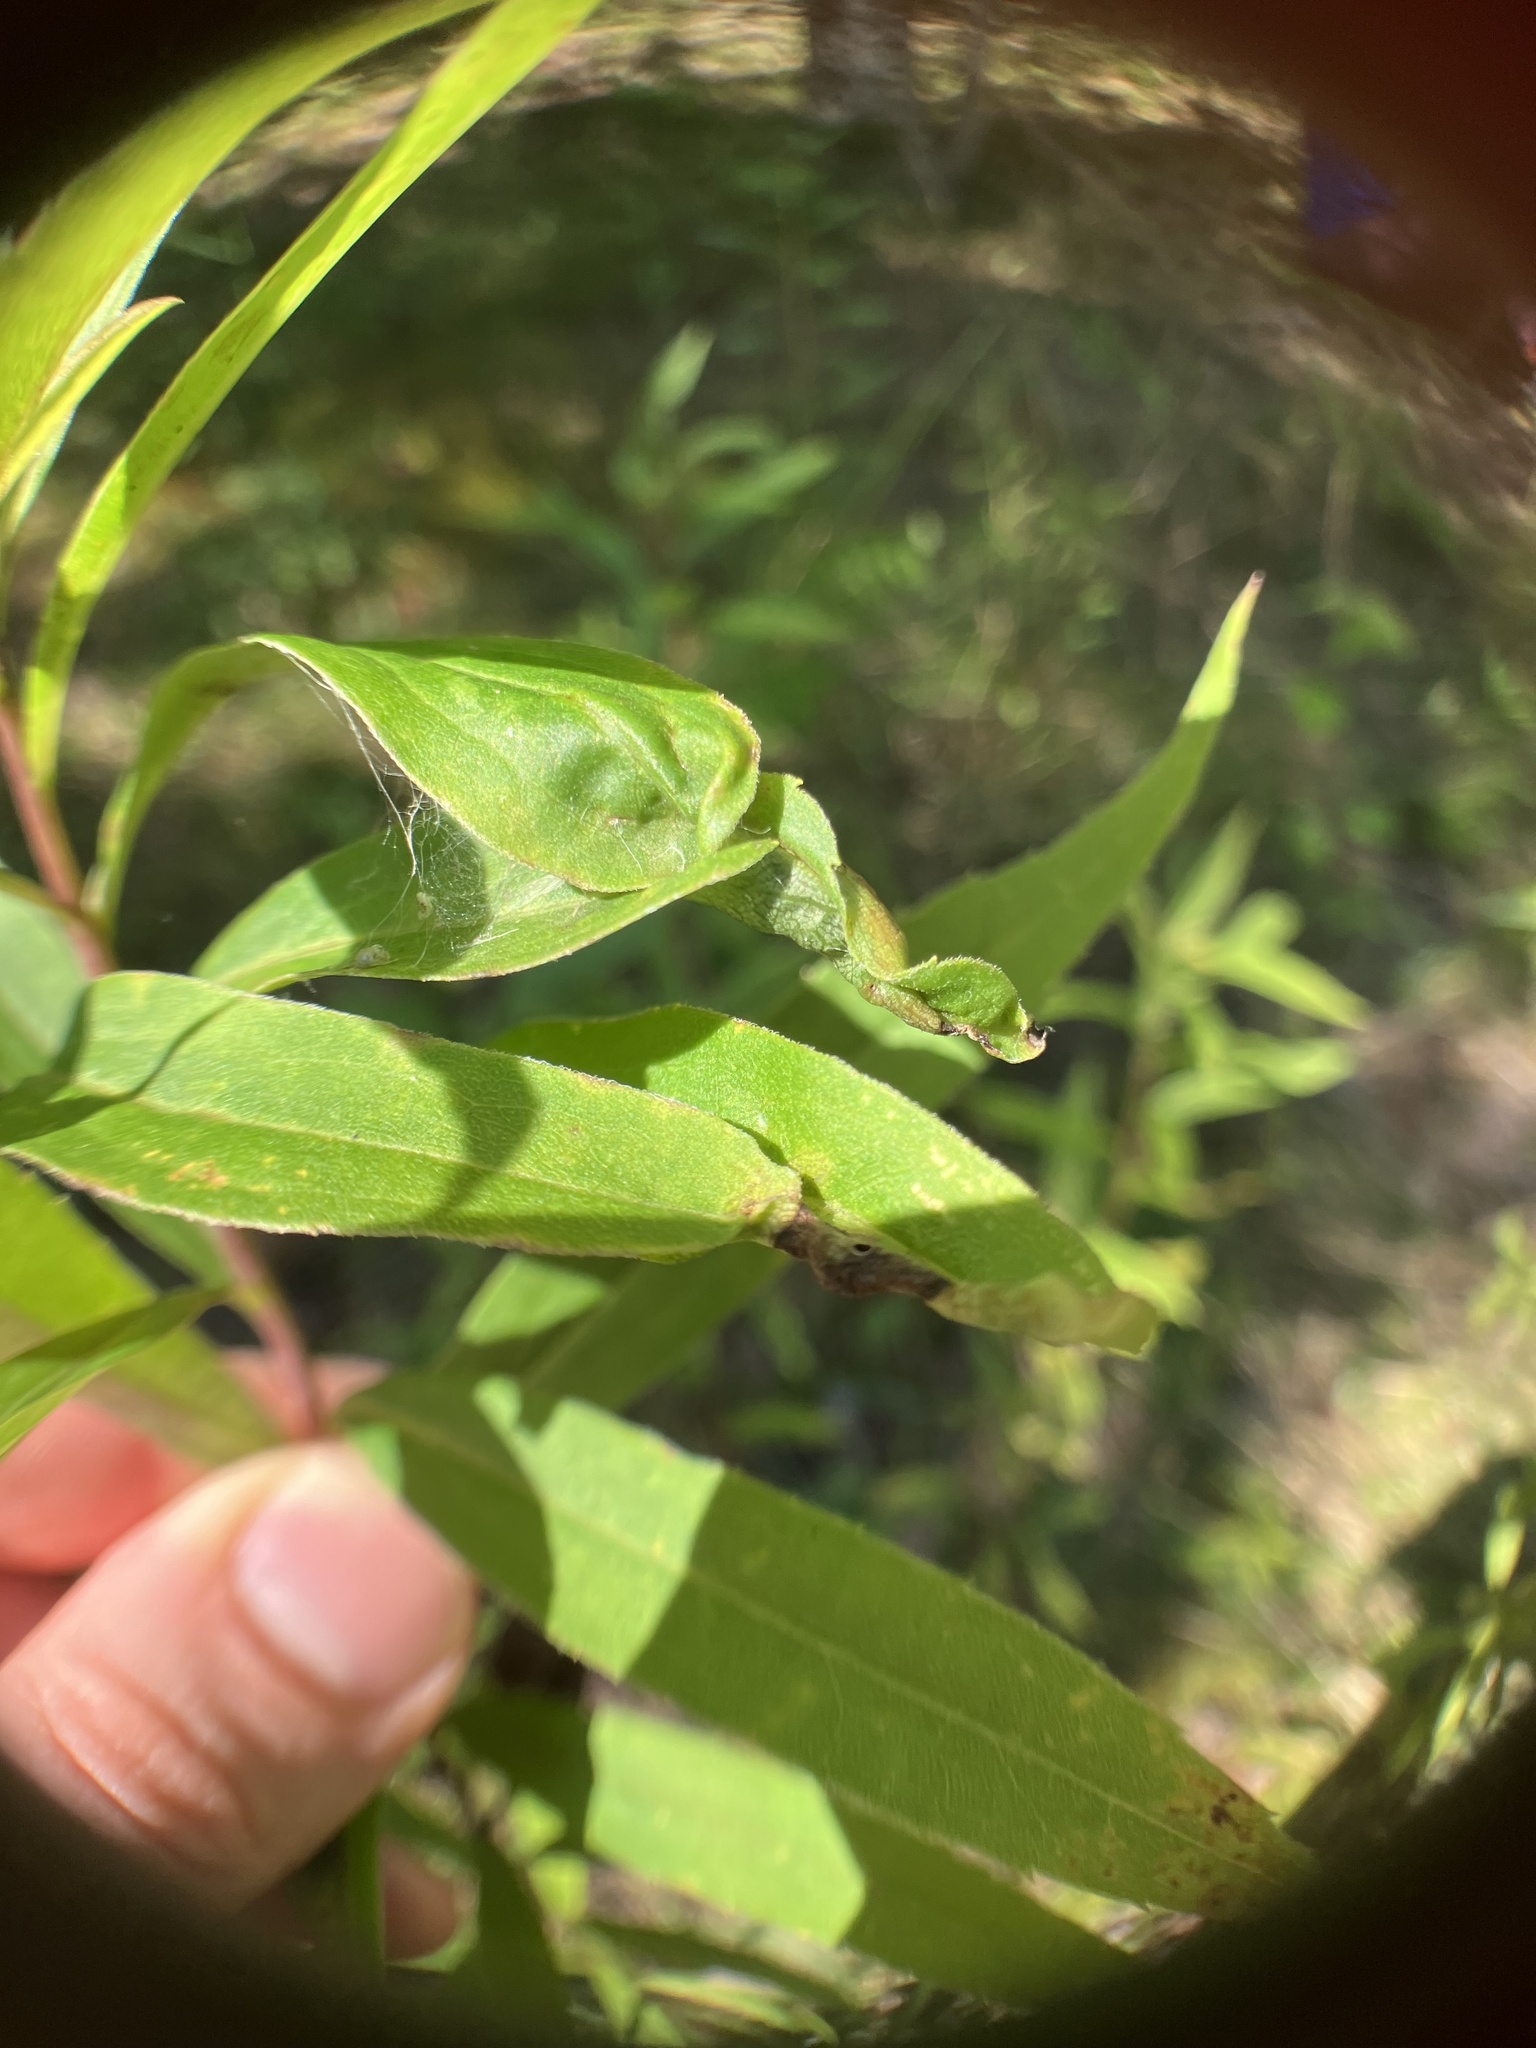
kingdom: Animalia
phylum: Arthropoda
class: Insecta
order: Diptera
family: Cecidomyiidae
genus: Asphondylia
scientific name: Asphondylia solidaginis
